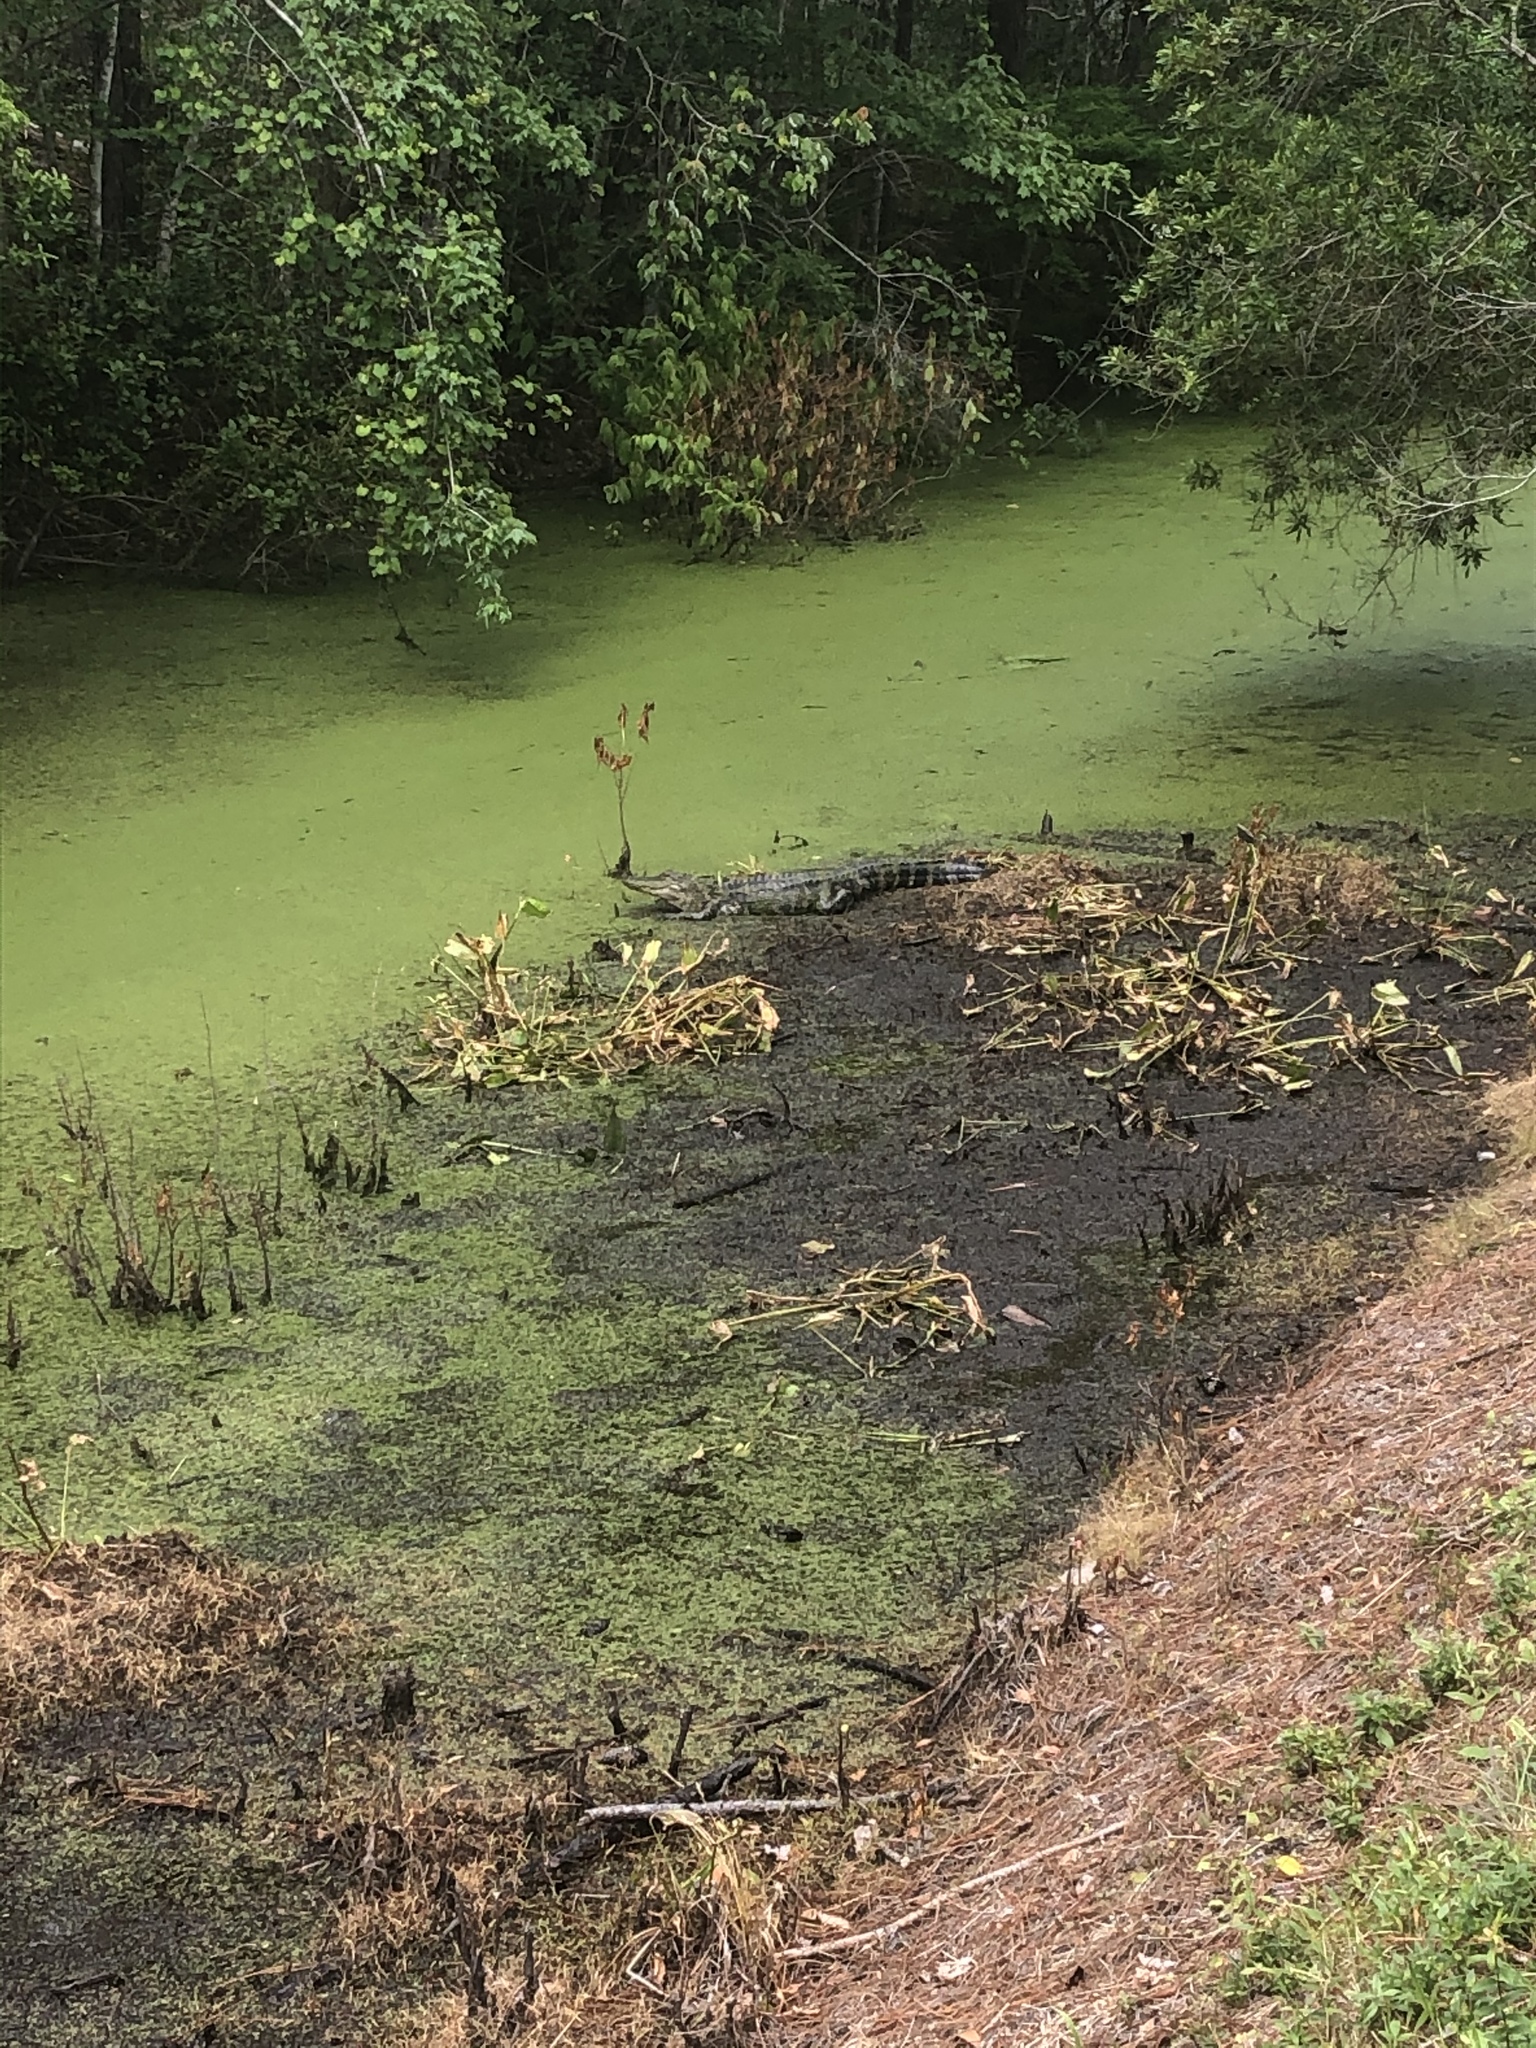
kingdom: Animalia
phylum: Chordata
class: Crocodylia
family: Alligatoridae
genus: Alligator
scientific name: Alligator mississippiensis
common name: American alligator
